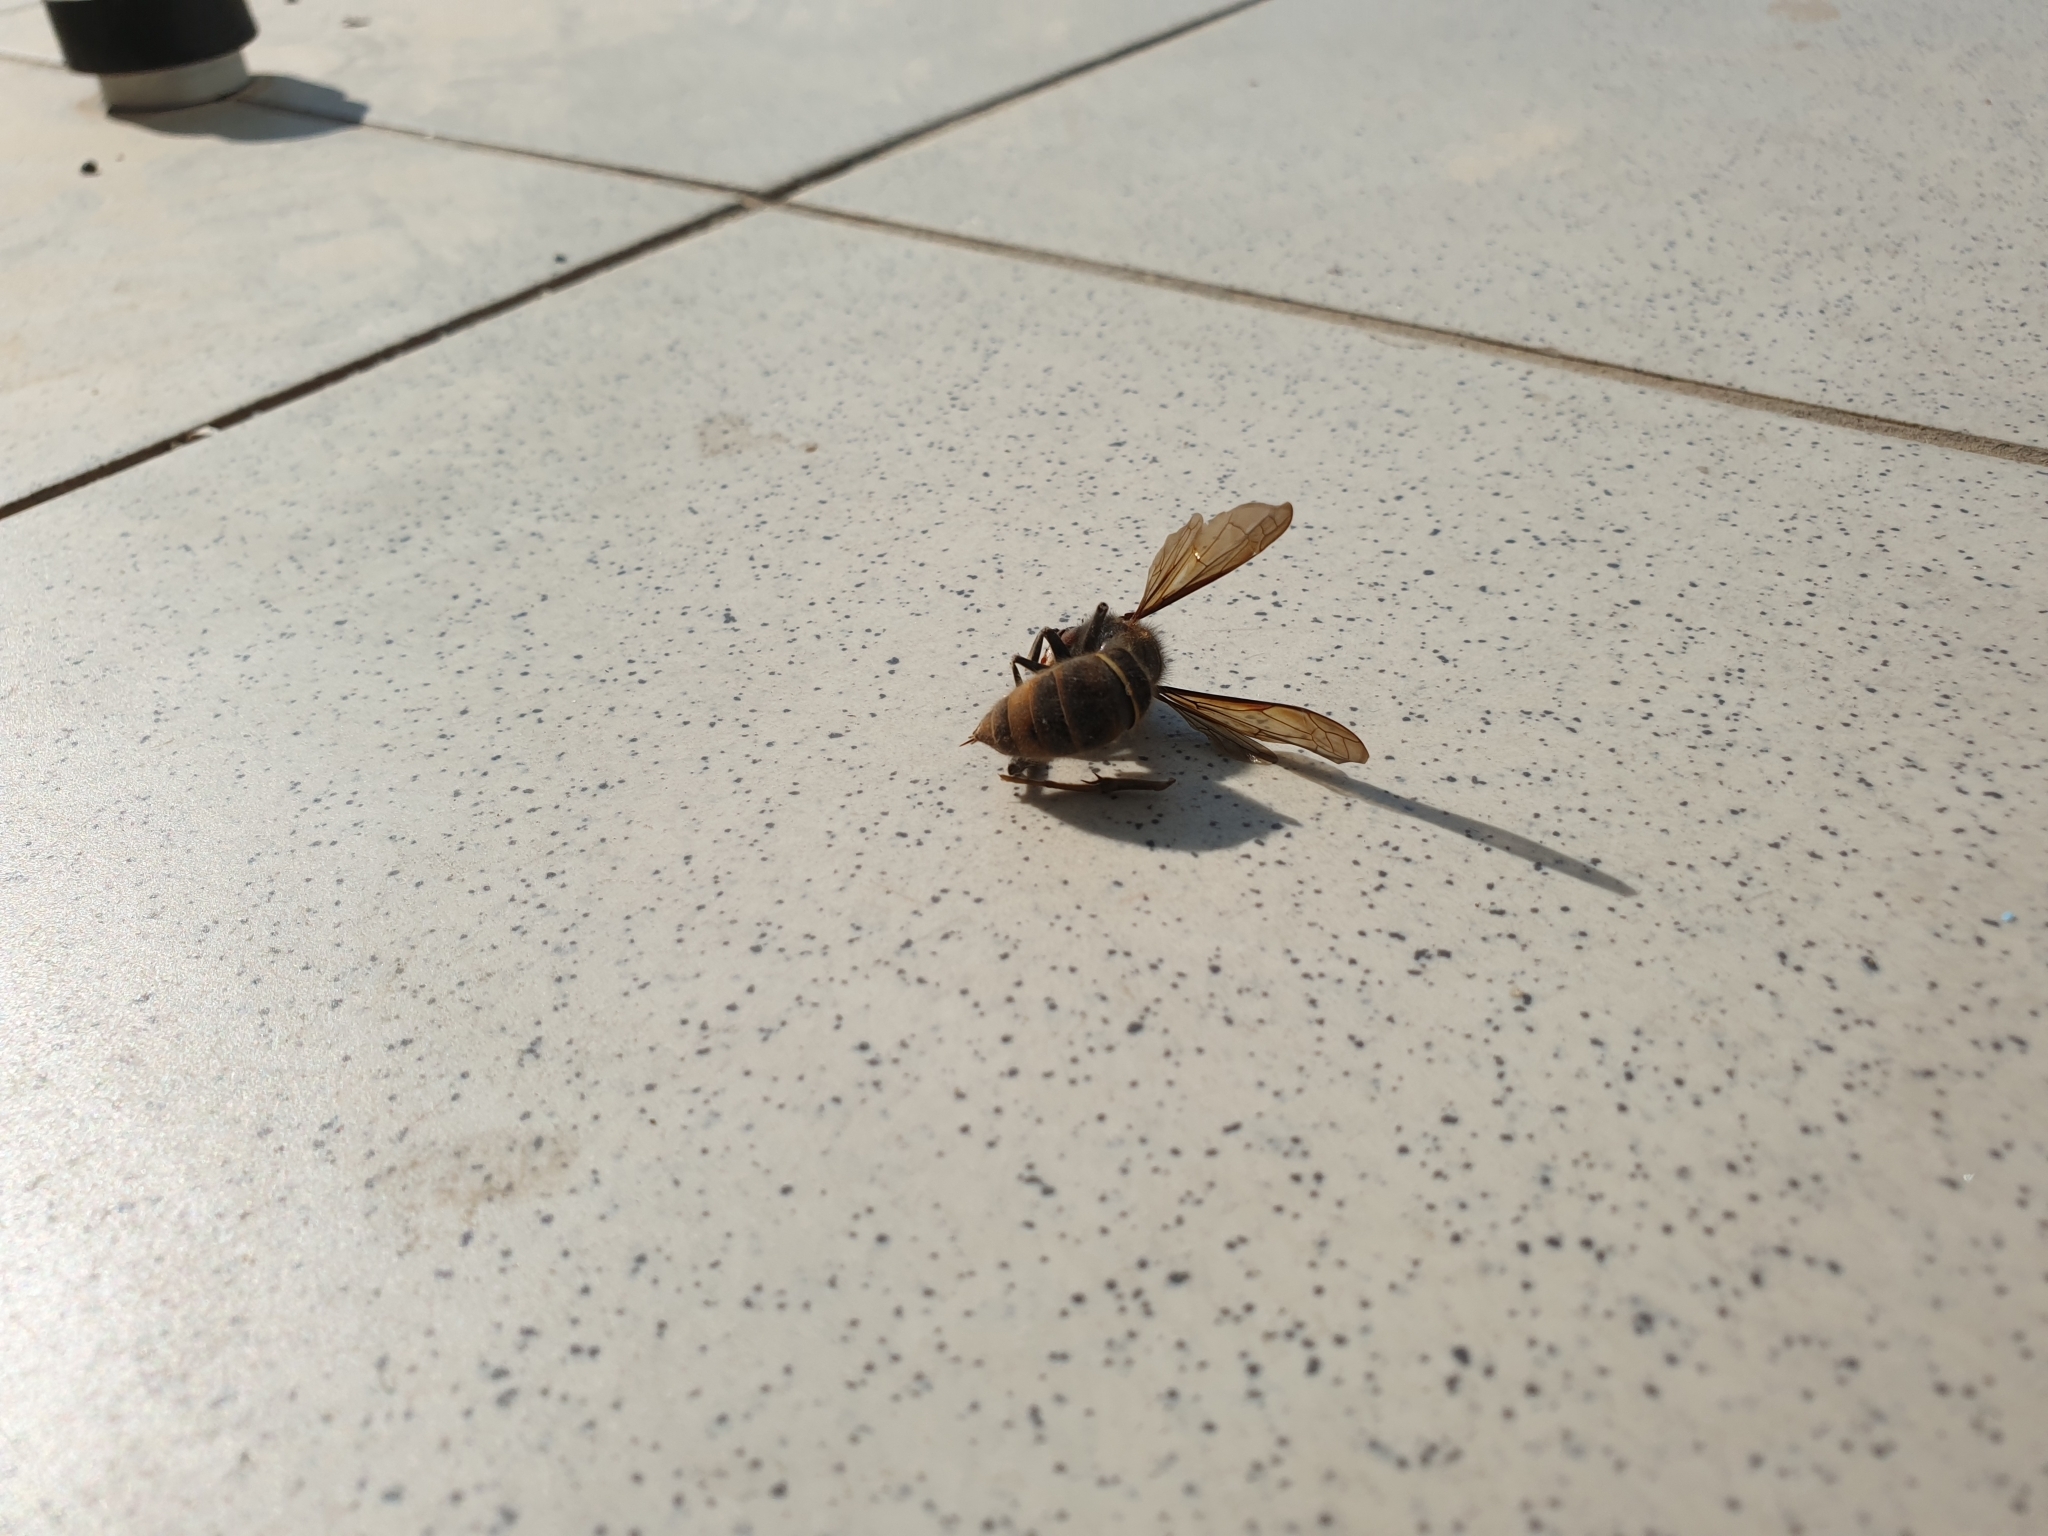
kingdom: Animalia
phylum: Arthropoda
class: Insecta
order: Hymenoptera
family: Vespidae
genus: Vespa
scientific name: Vespa velutina
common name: Asian hornet
